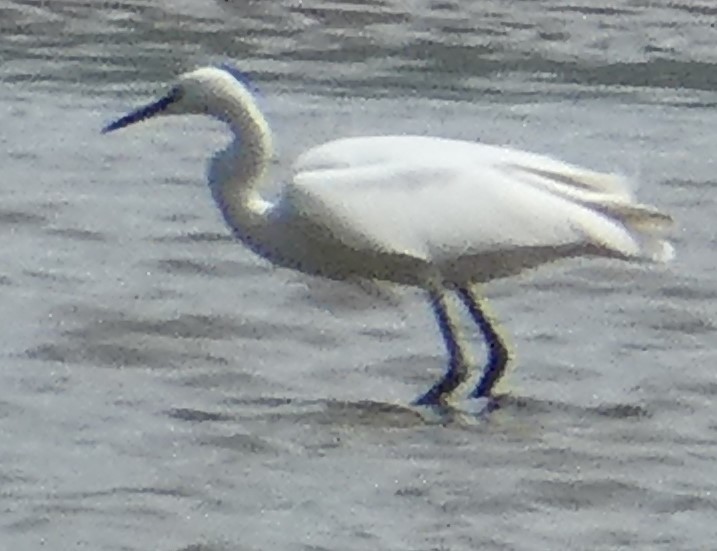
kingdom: Animalia
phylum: Chordata
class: Aves
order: Pelecaniformes
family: Ardeidae
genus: Egretta
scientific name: Egretta garzetta
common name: Little egret
